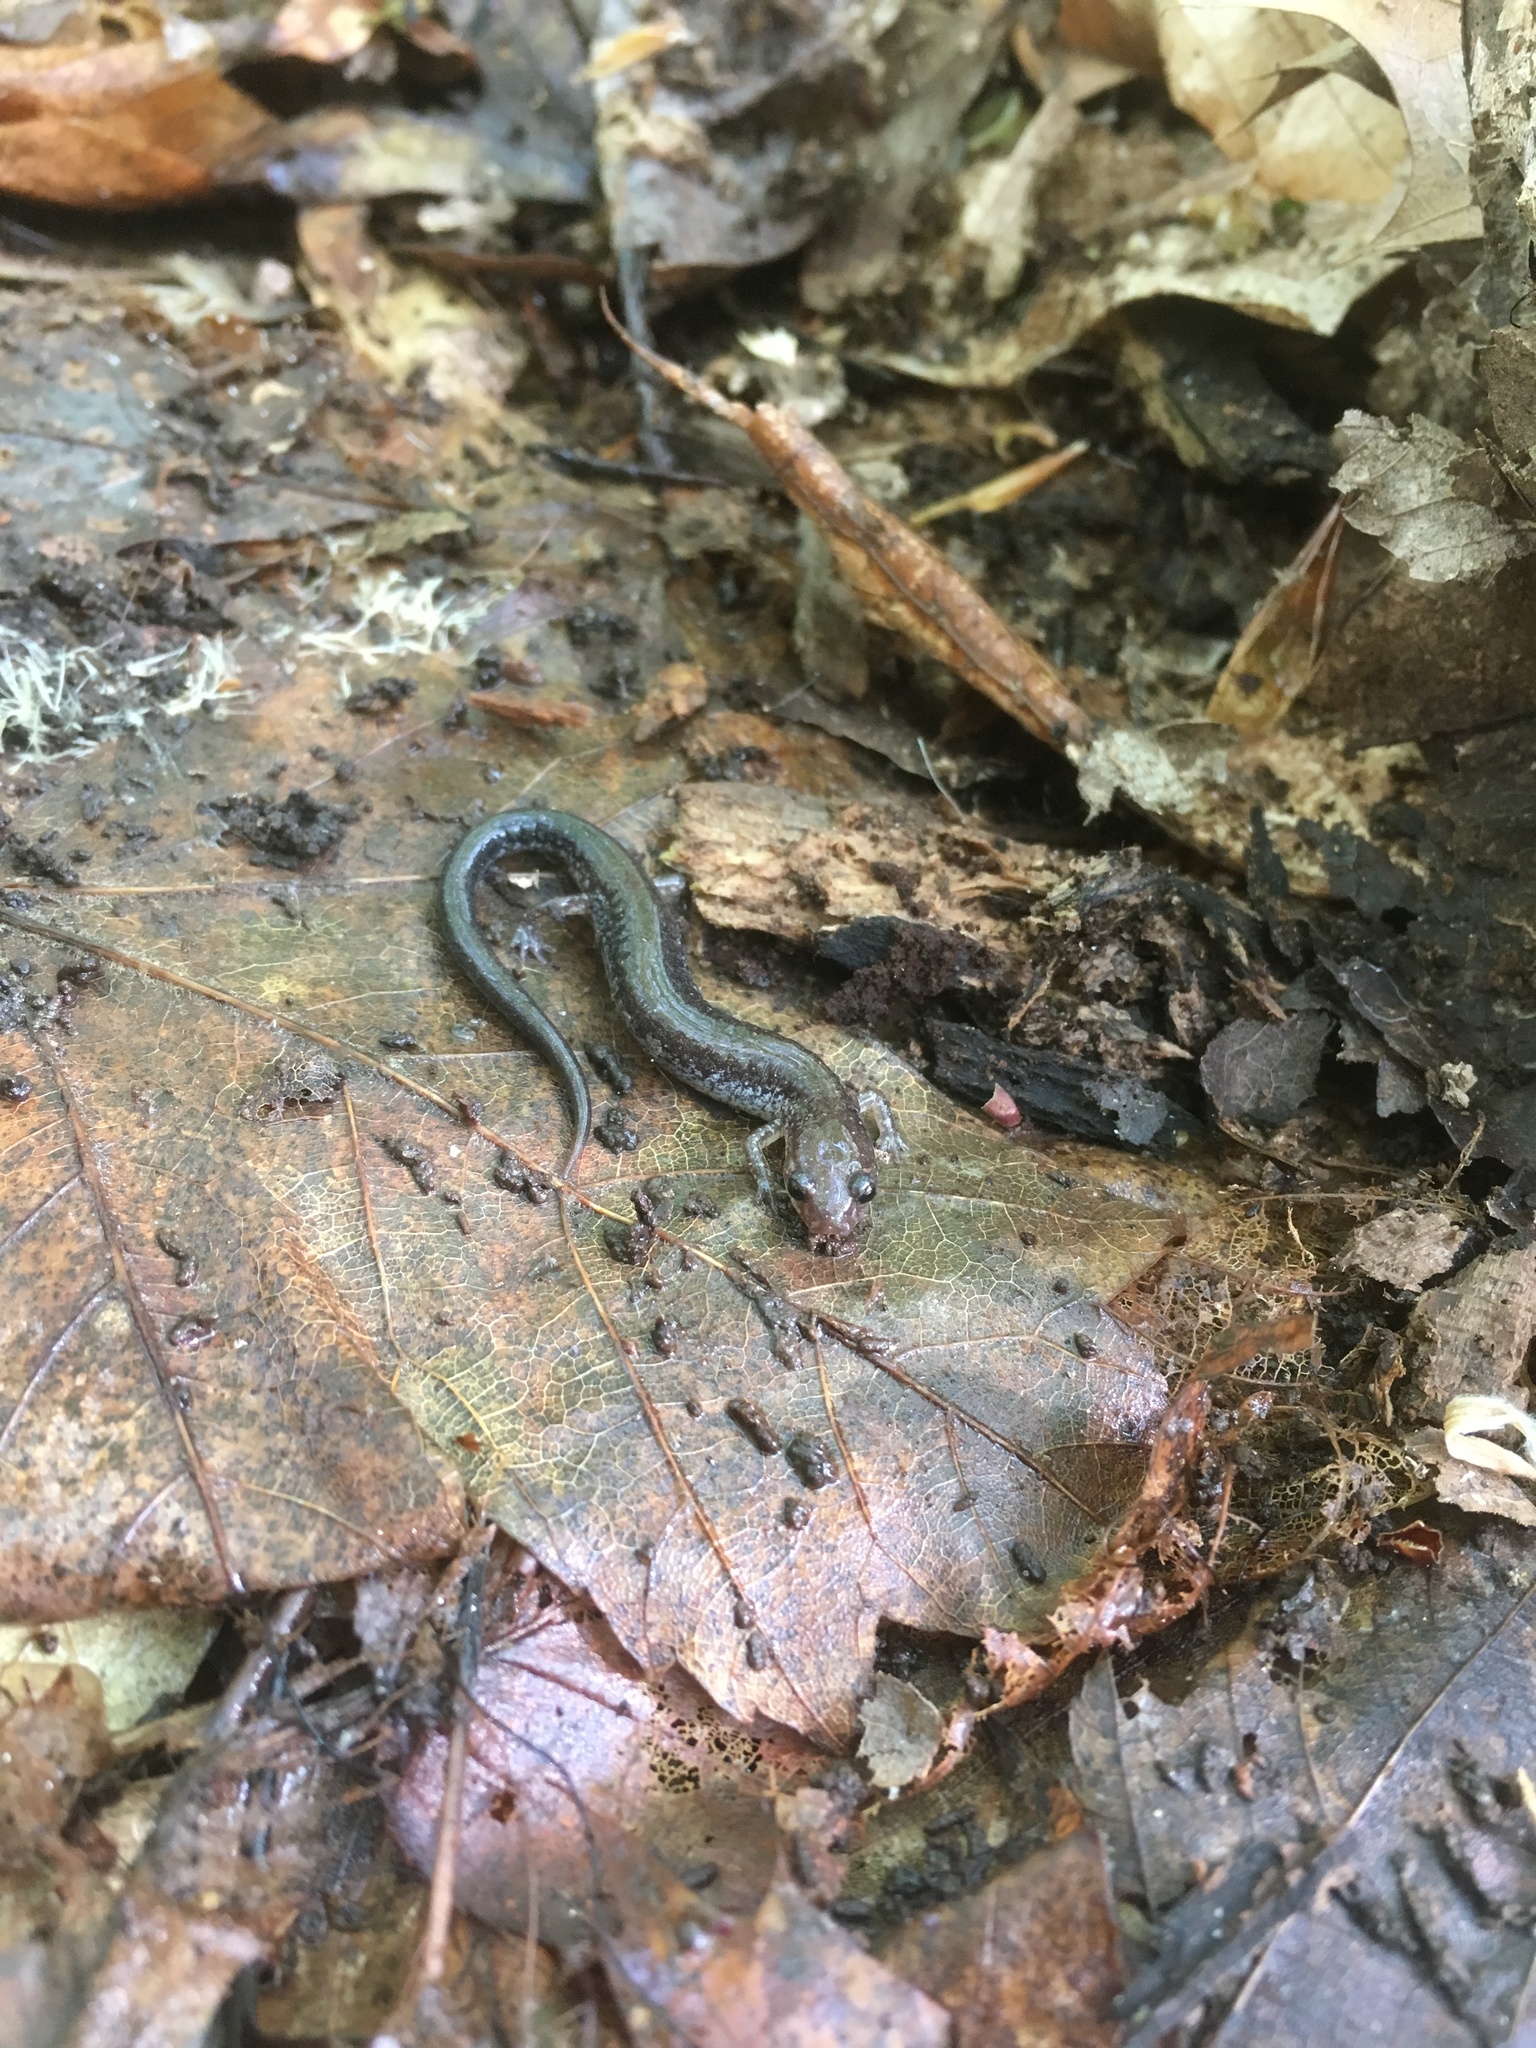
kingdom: Animalia
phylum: Chordata
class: Amphibia
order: Caudata
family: Plethodontidae
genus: Plethodon
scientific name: Plethodon cinereus
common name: Redback salamander
